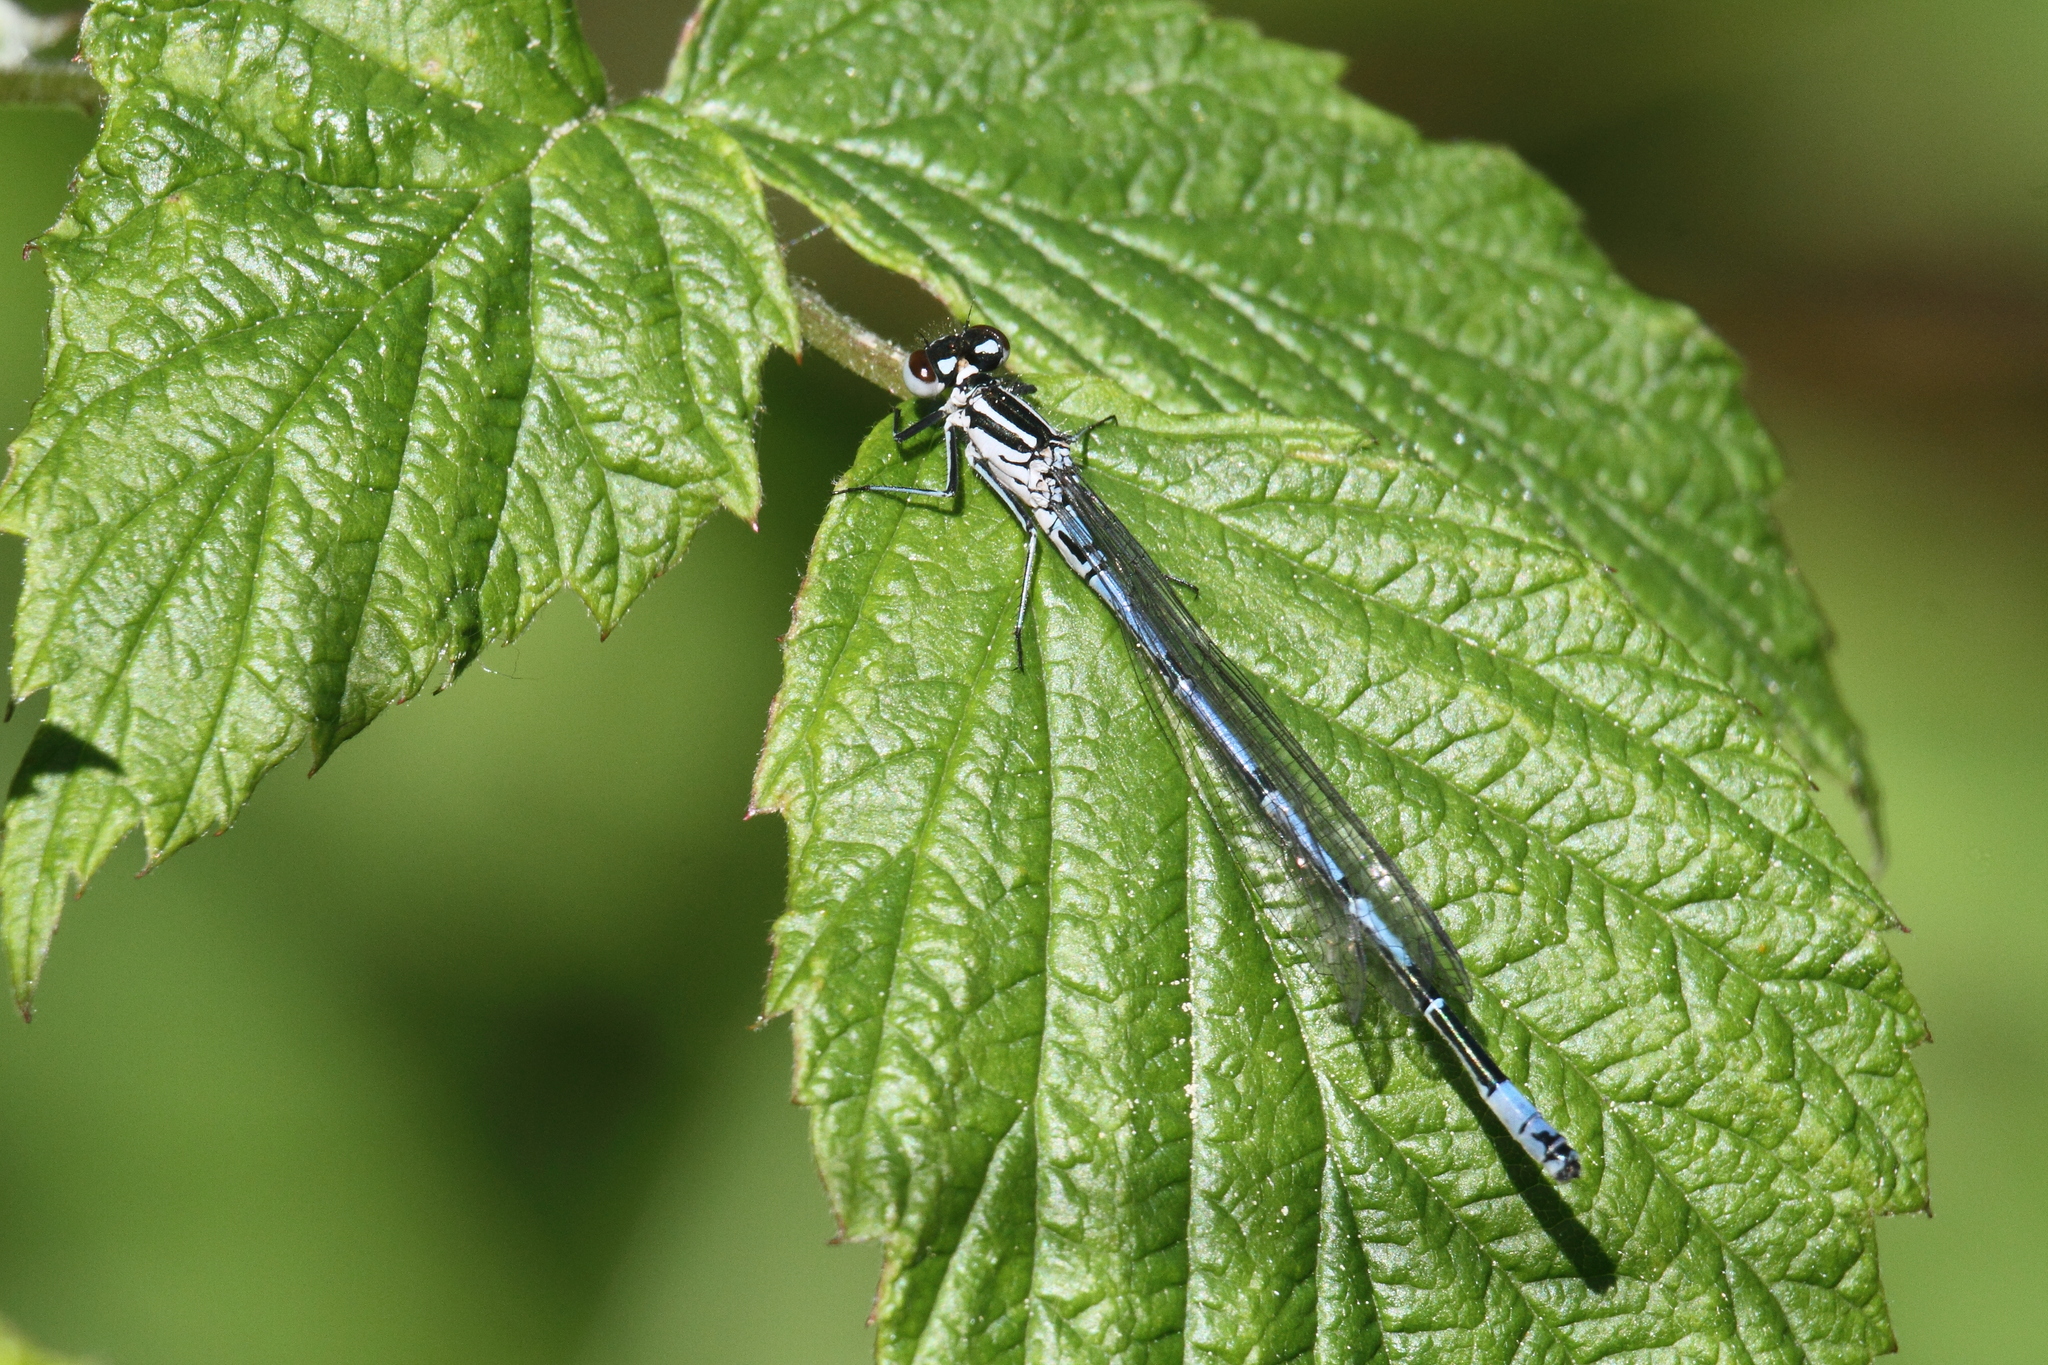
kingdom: Animalia
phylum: Arthropoda
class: Insecta
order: Odonata
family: Coenagrionidae
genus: Coenagrion
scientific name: Coenagrion puella
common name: Azure damselfly
